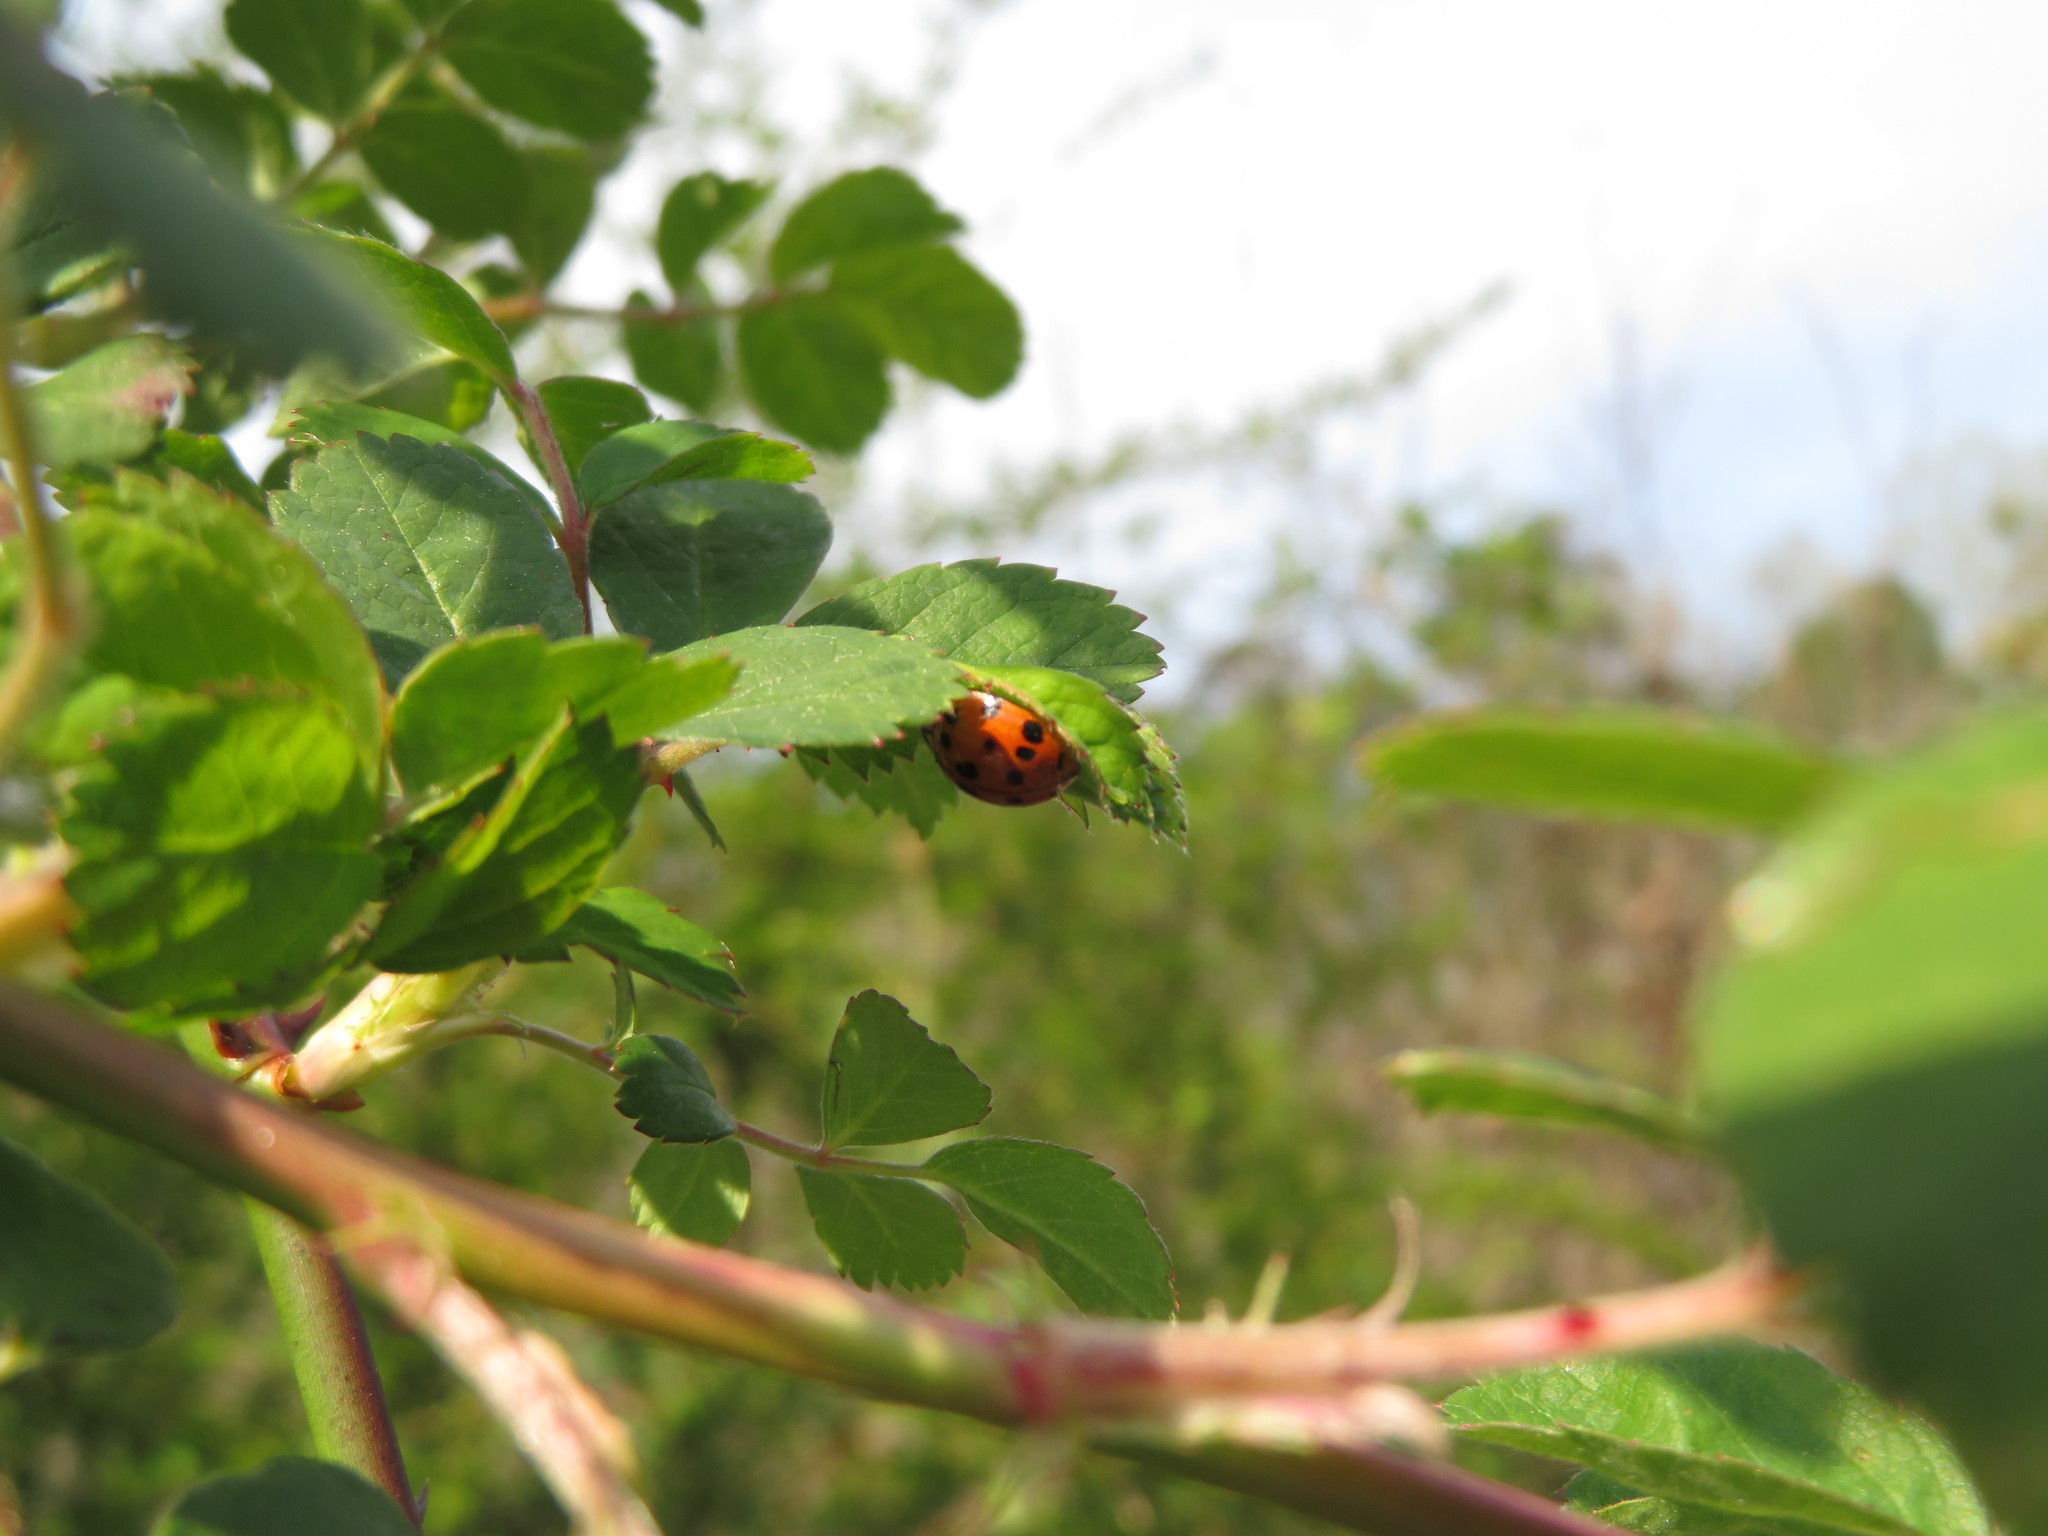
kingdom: Animalia
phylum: Arthropoda
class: Insecta
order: Coleoptera
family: Coccinellidae
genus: Harmonia
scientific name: Harmonia axyridis
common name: Harlequin ladybird
